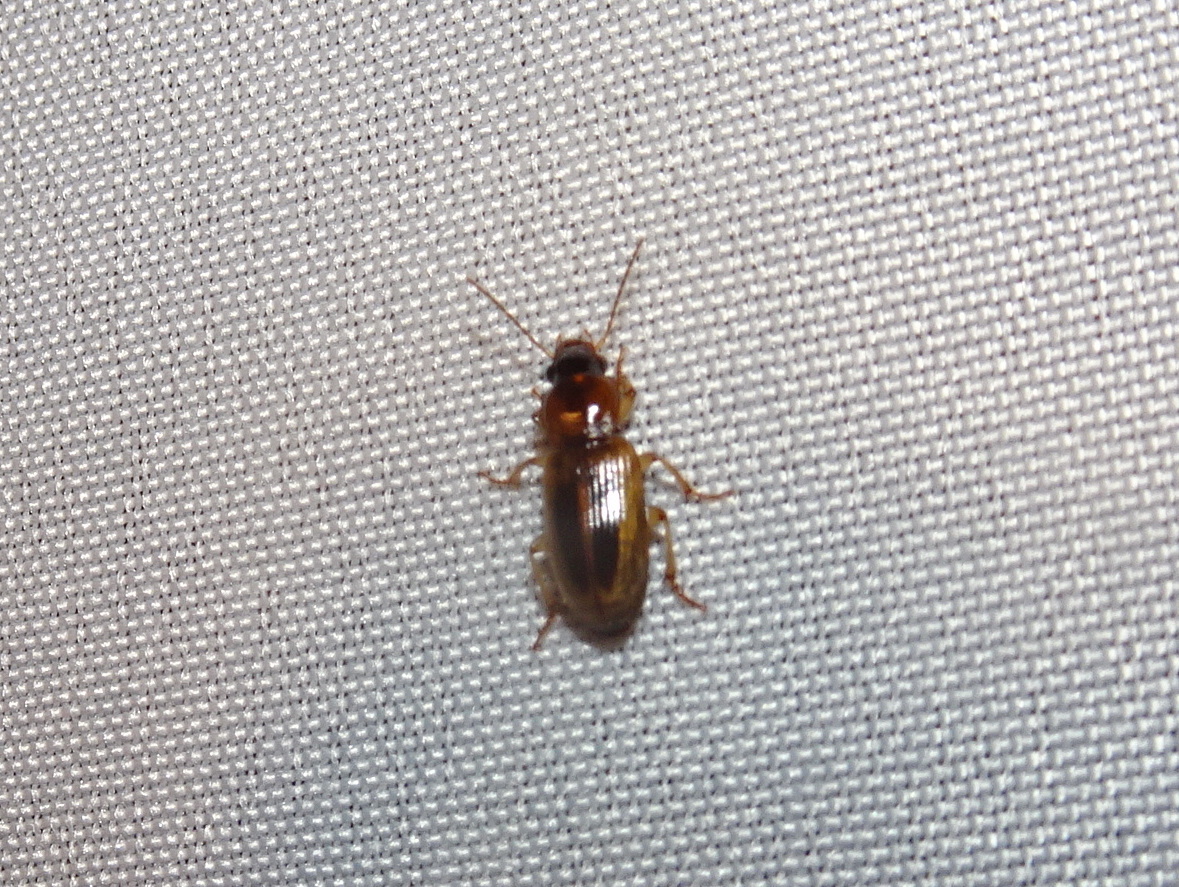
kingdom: Animalia
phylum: Arthropoda
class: Insecta
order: Coleoptera
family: Carabidae
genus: Stenolophus
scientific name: Stenolophus lecontei
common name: Leconte's seedcorn beetle
